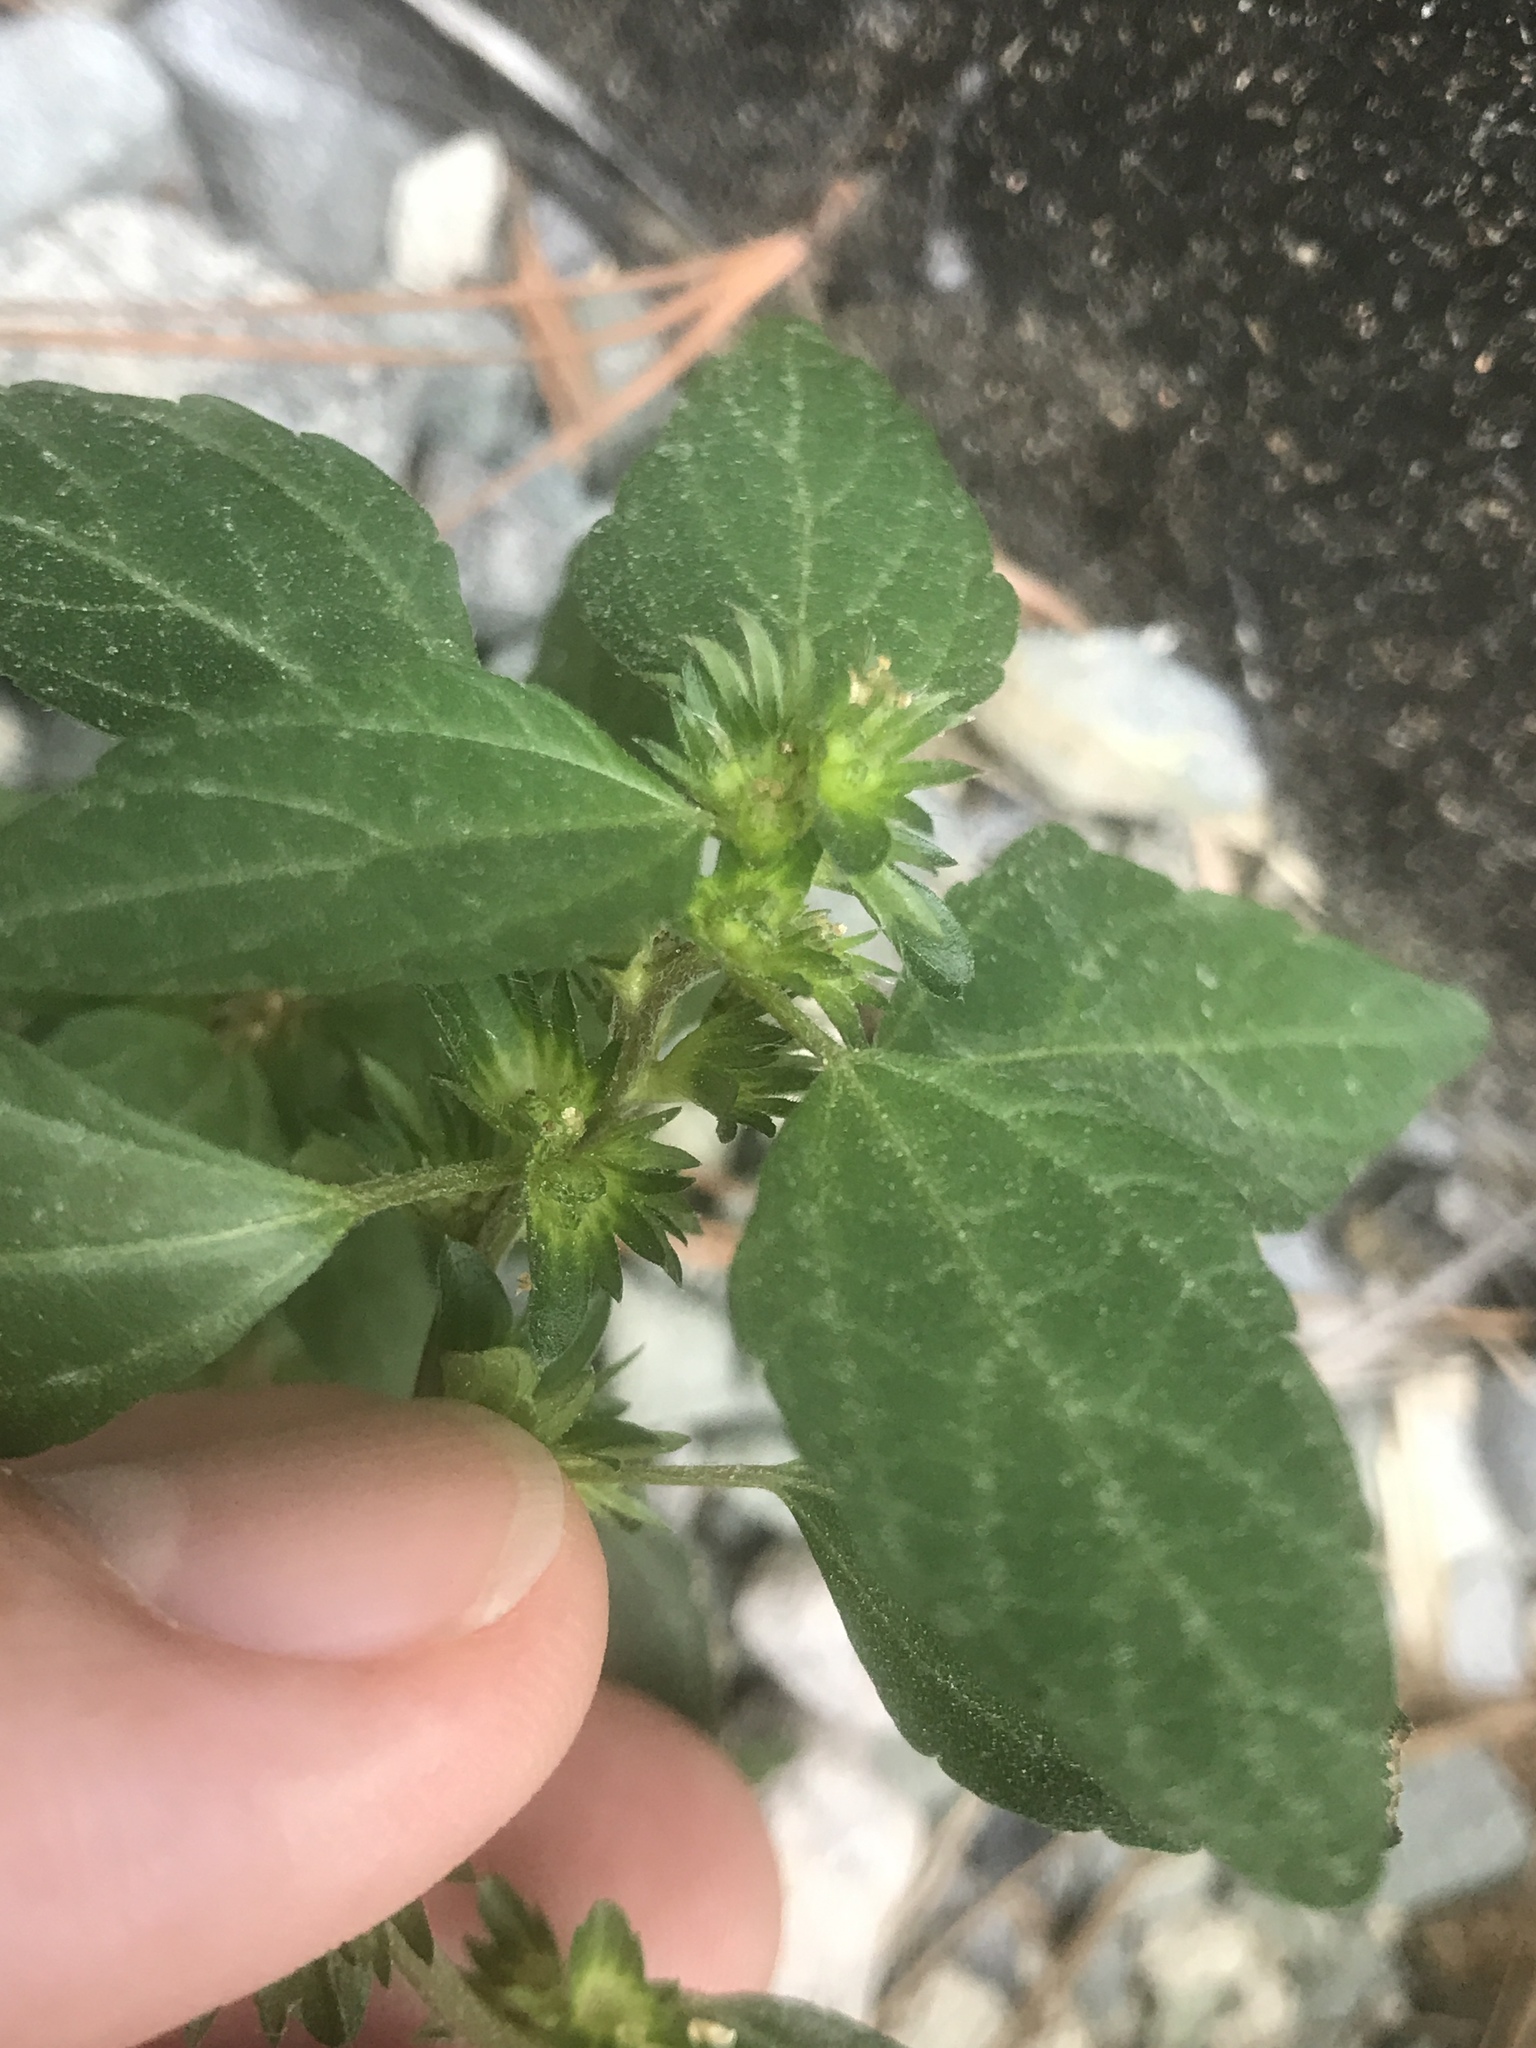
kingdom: Plantae
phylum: Tracheophyta
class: Magnoliopsida
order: Malpighiales
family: Euphorbiaceae
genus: Acalypha
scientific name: Acalypha rhomboidea
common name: Rhombic copperleaf
